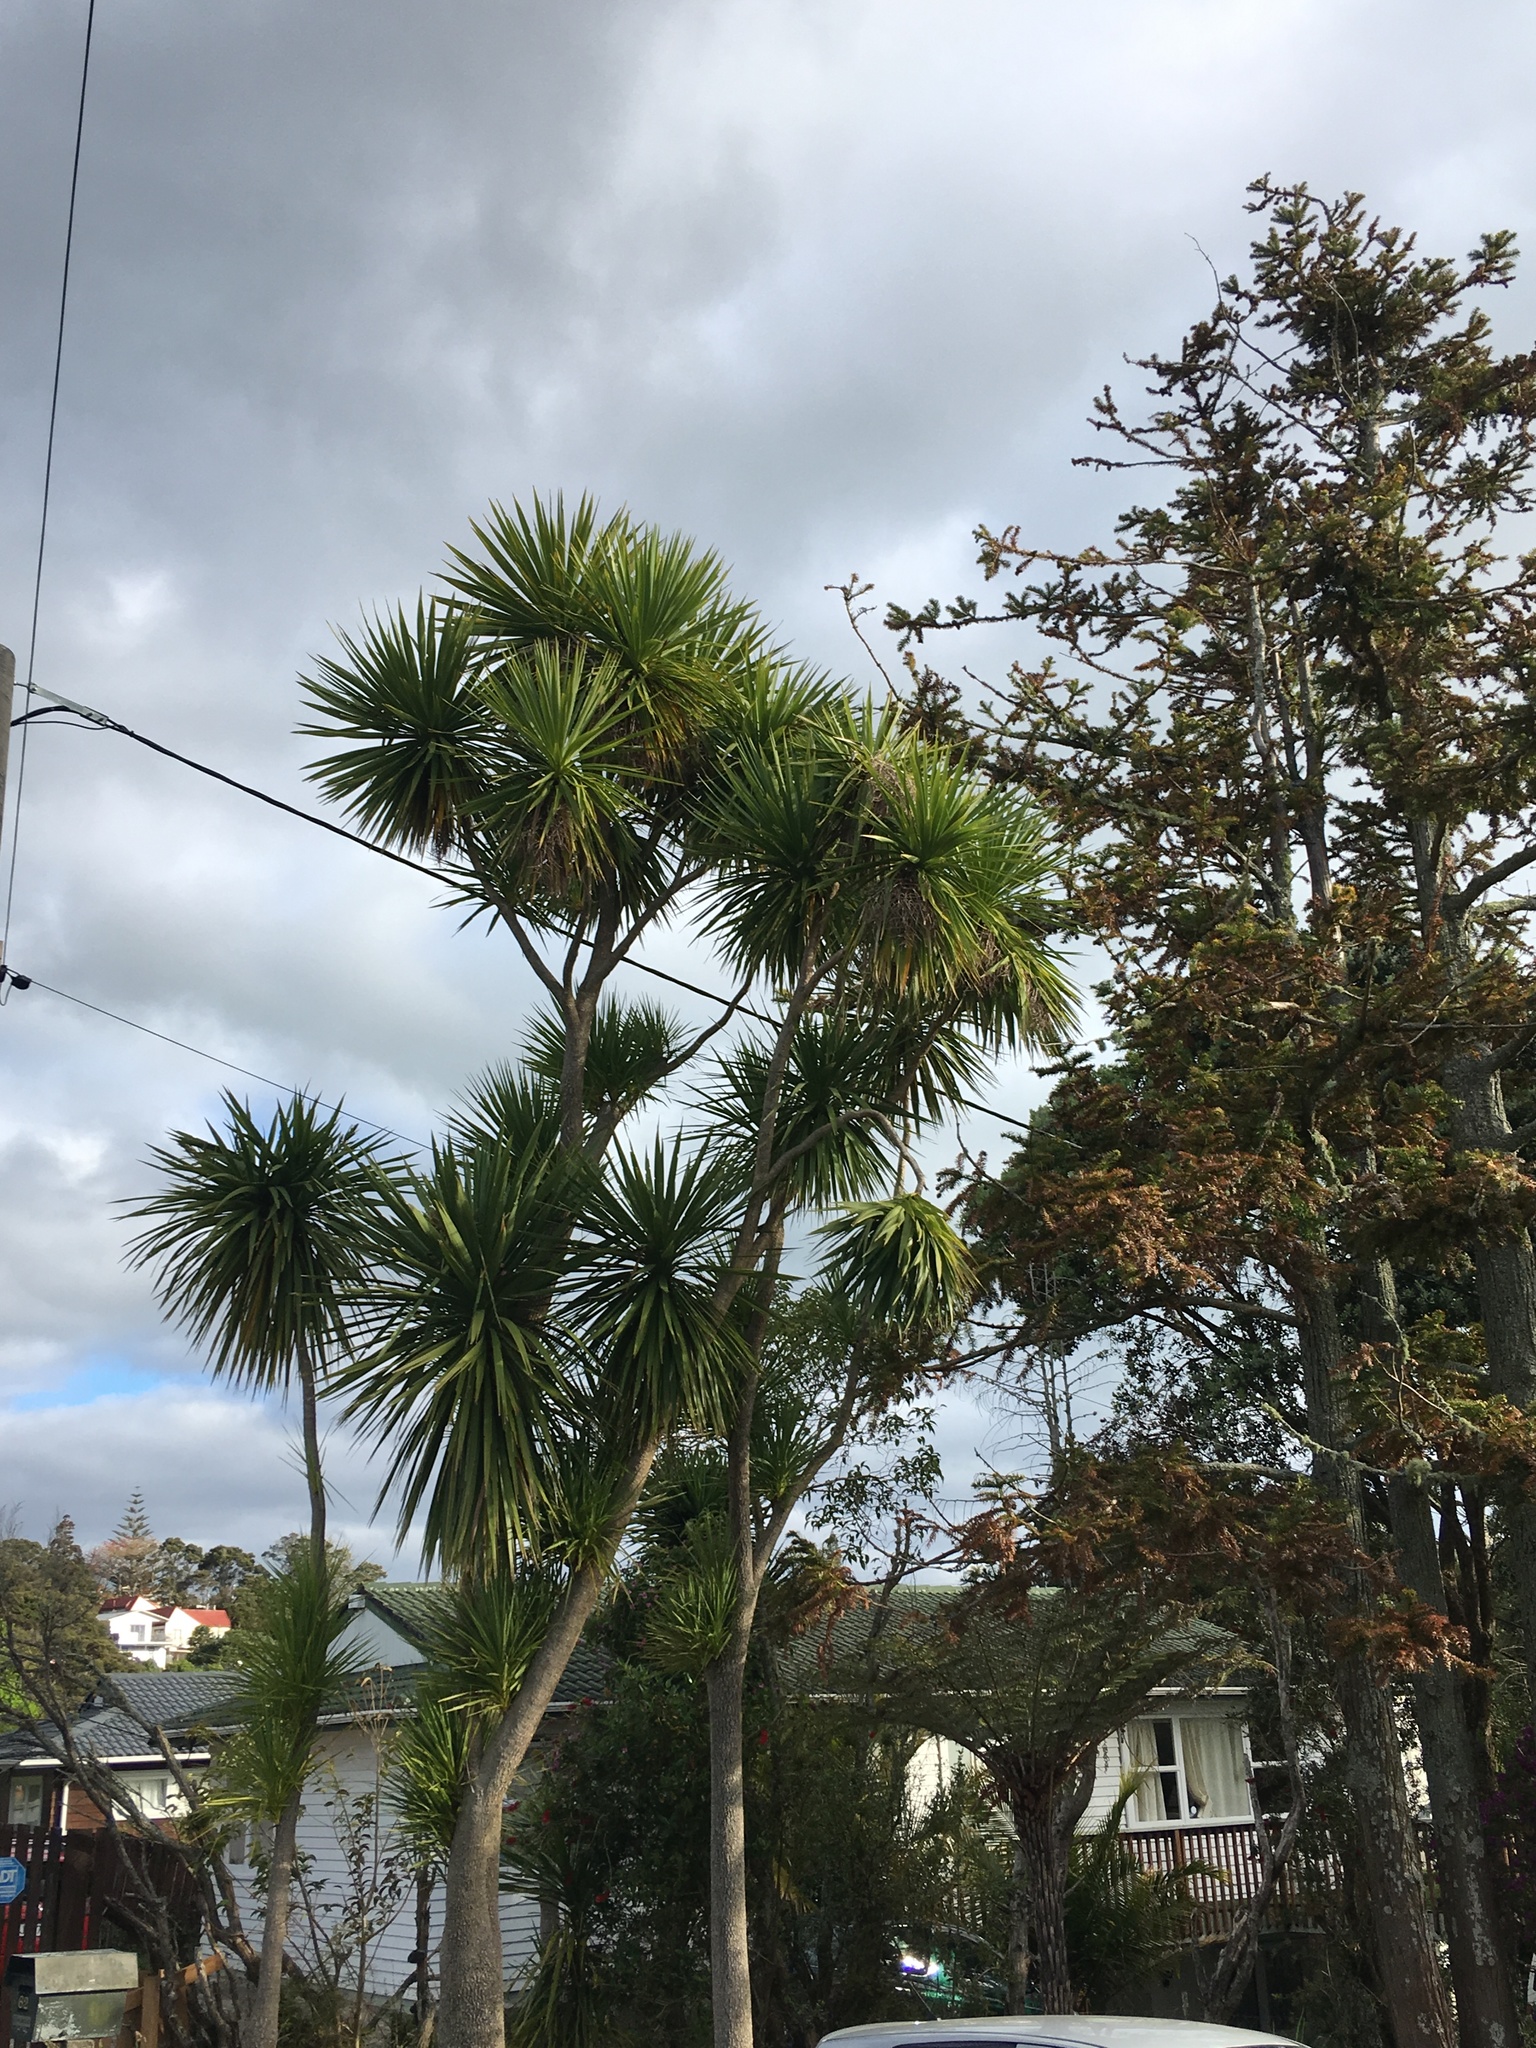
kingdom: Plantae
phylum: Tracheophyta
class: Liliopsida
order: Asparagales
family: Asparagaceae
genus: Cordyline
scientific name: Cordyline australis
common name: Cabbage-palm
